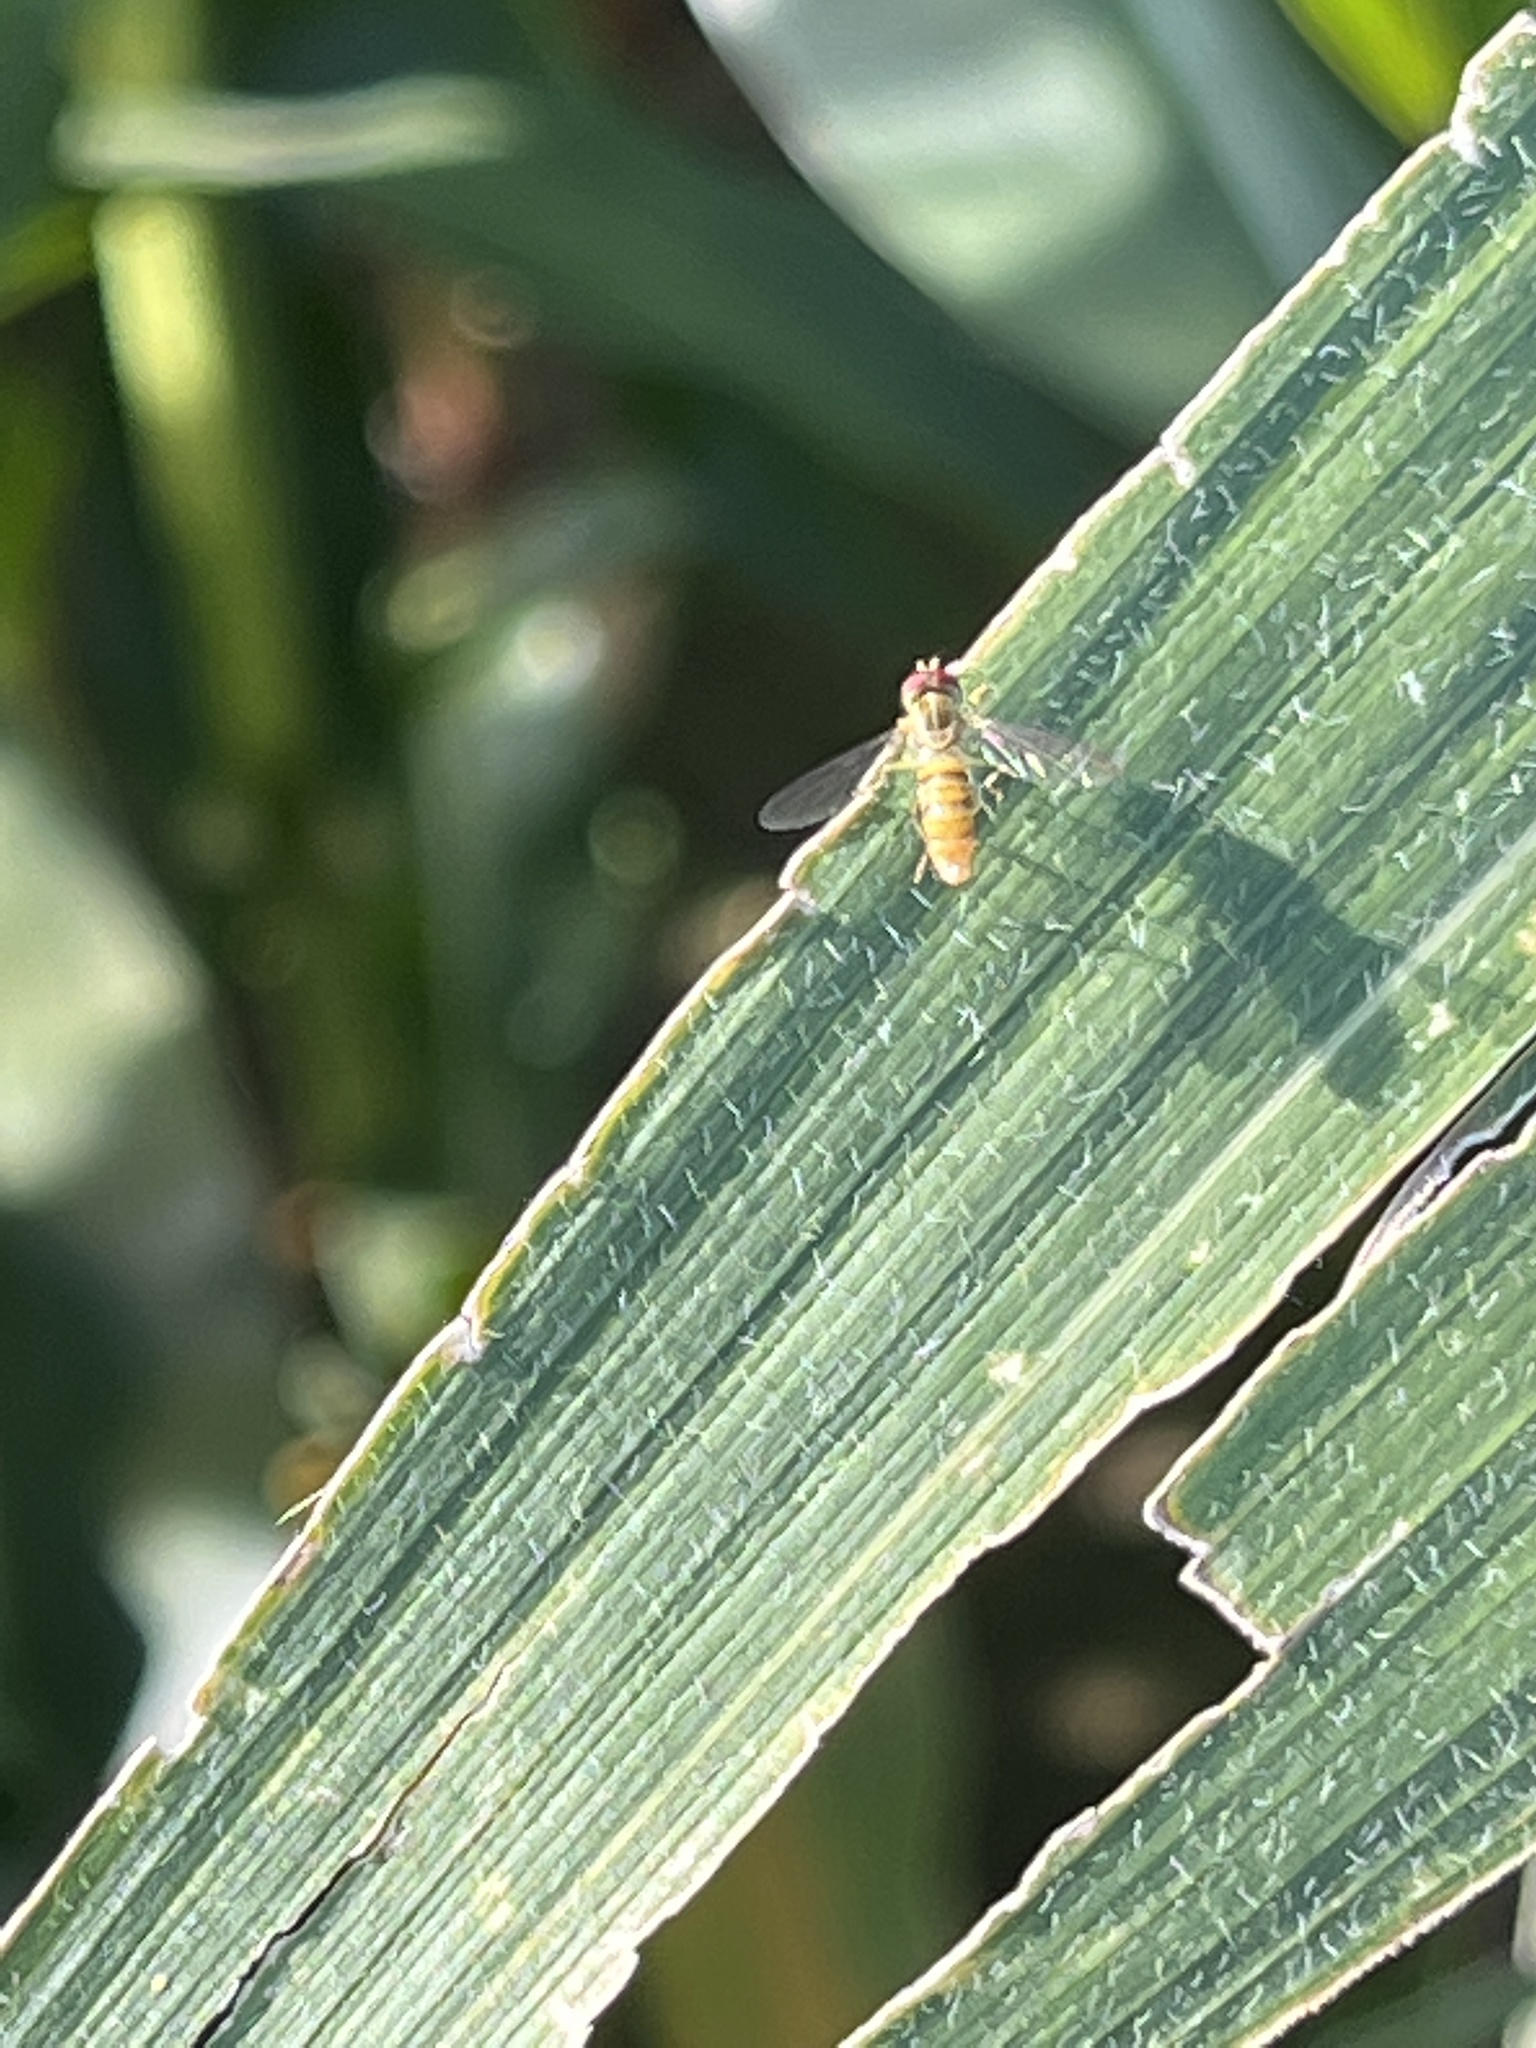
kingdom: Animalia
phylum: Arthropoda
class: Insecta
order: Diptera
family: Syrphidae
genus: Toxomerus
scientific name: Toxomerus politus
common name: Maize calligrapher
